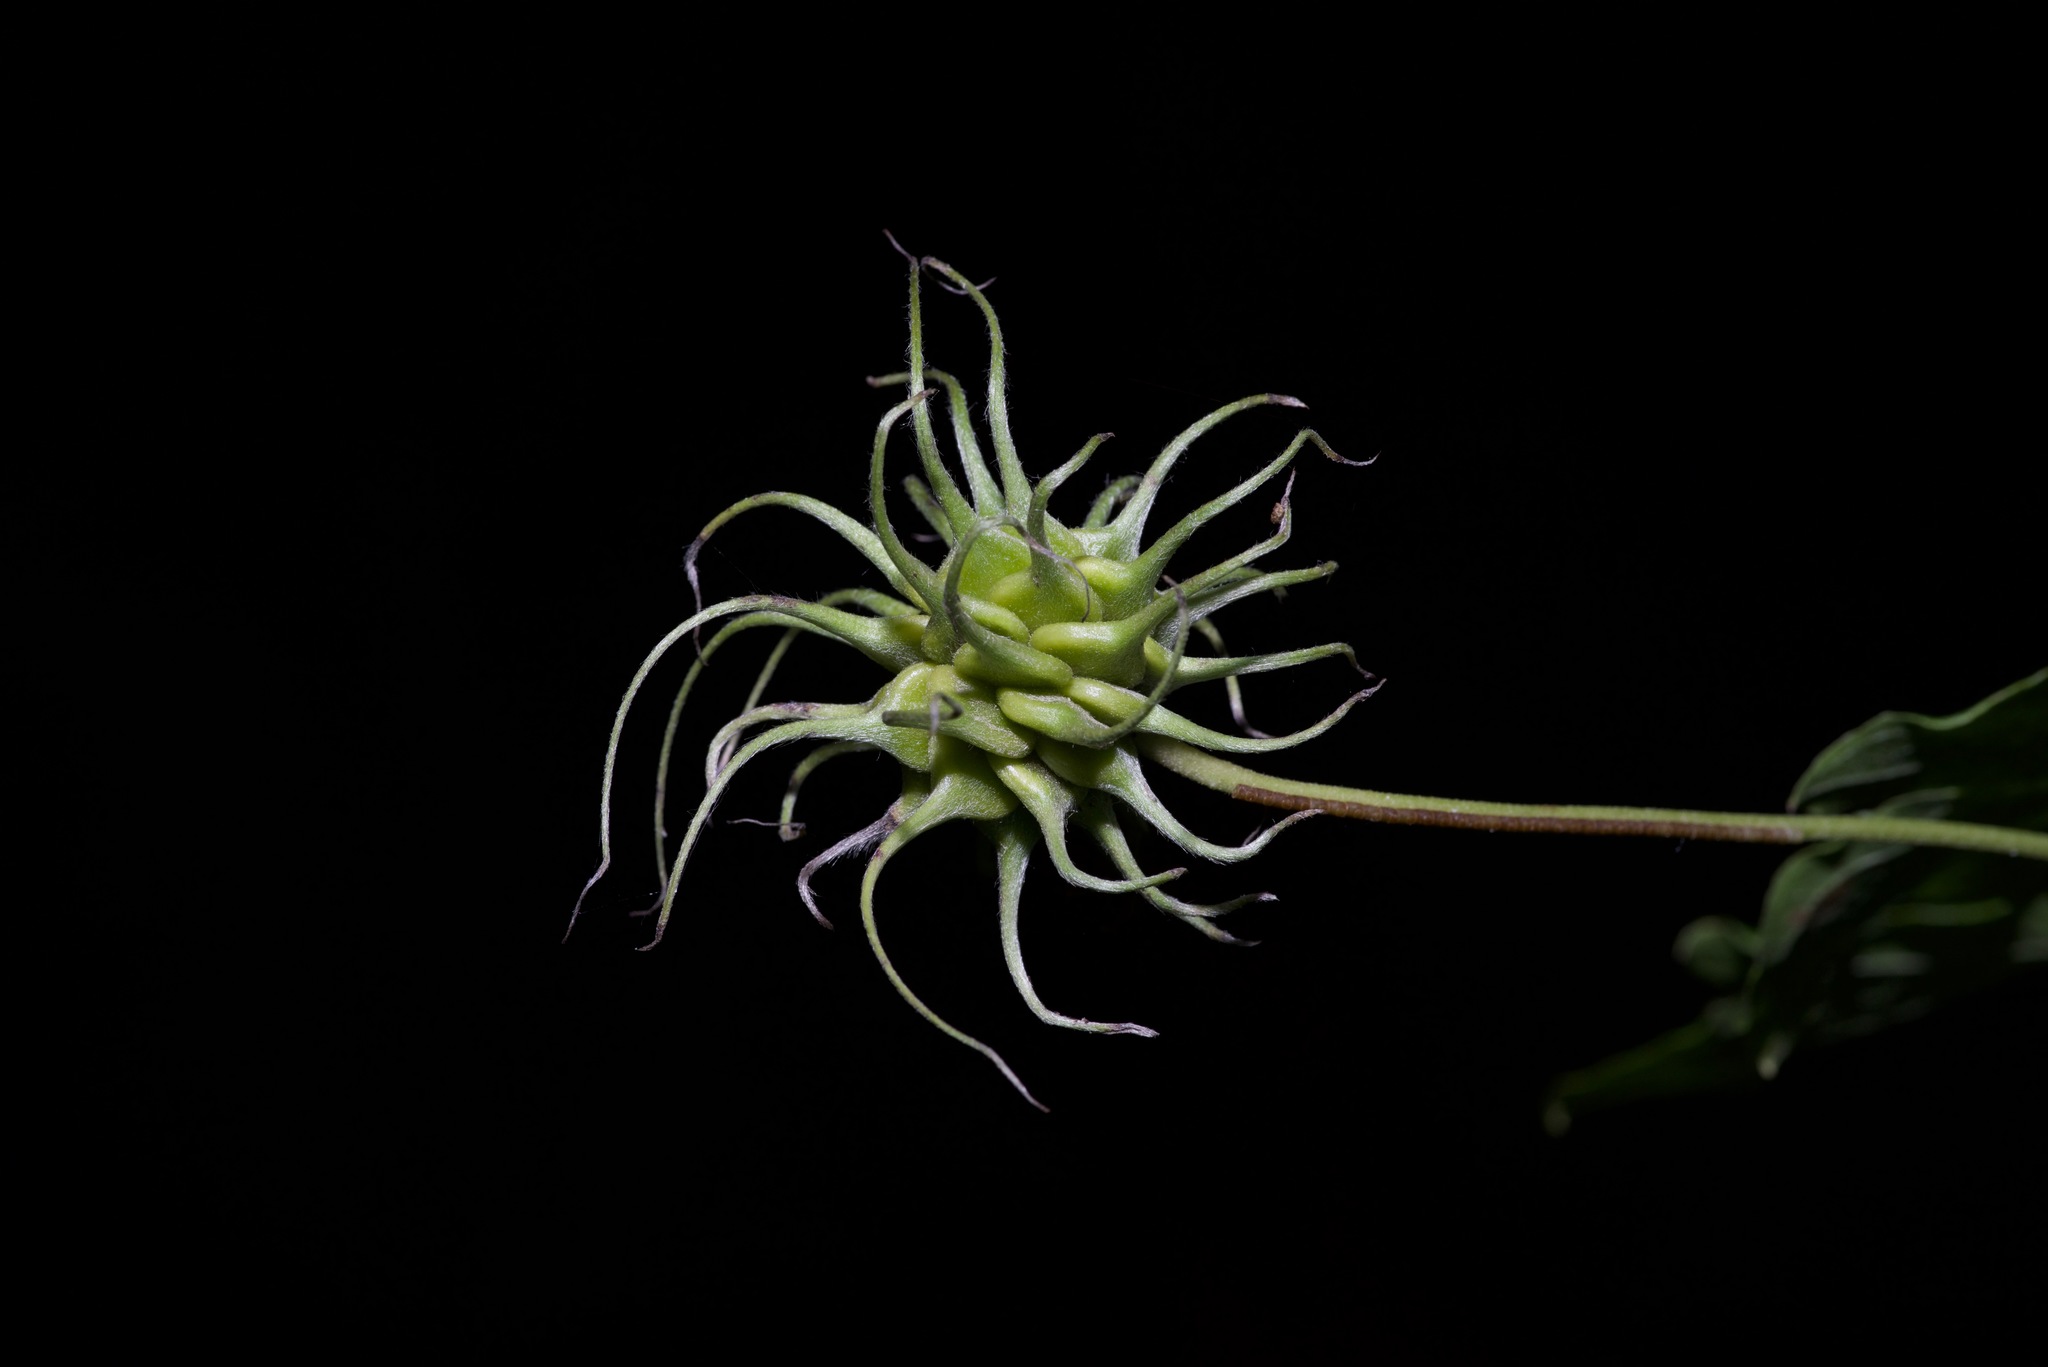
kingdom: Plantae
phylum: Tracheophyta
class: Magnoliopsida
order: Ranunculales
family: Ranunculaceae
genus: Clematis
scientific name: Clematis pitcheri
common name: Bellflower clematis
